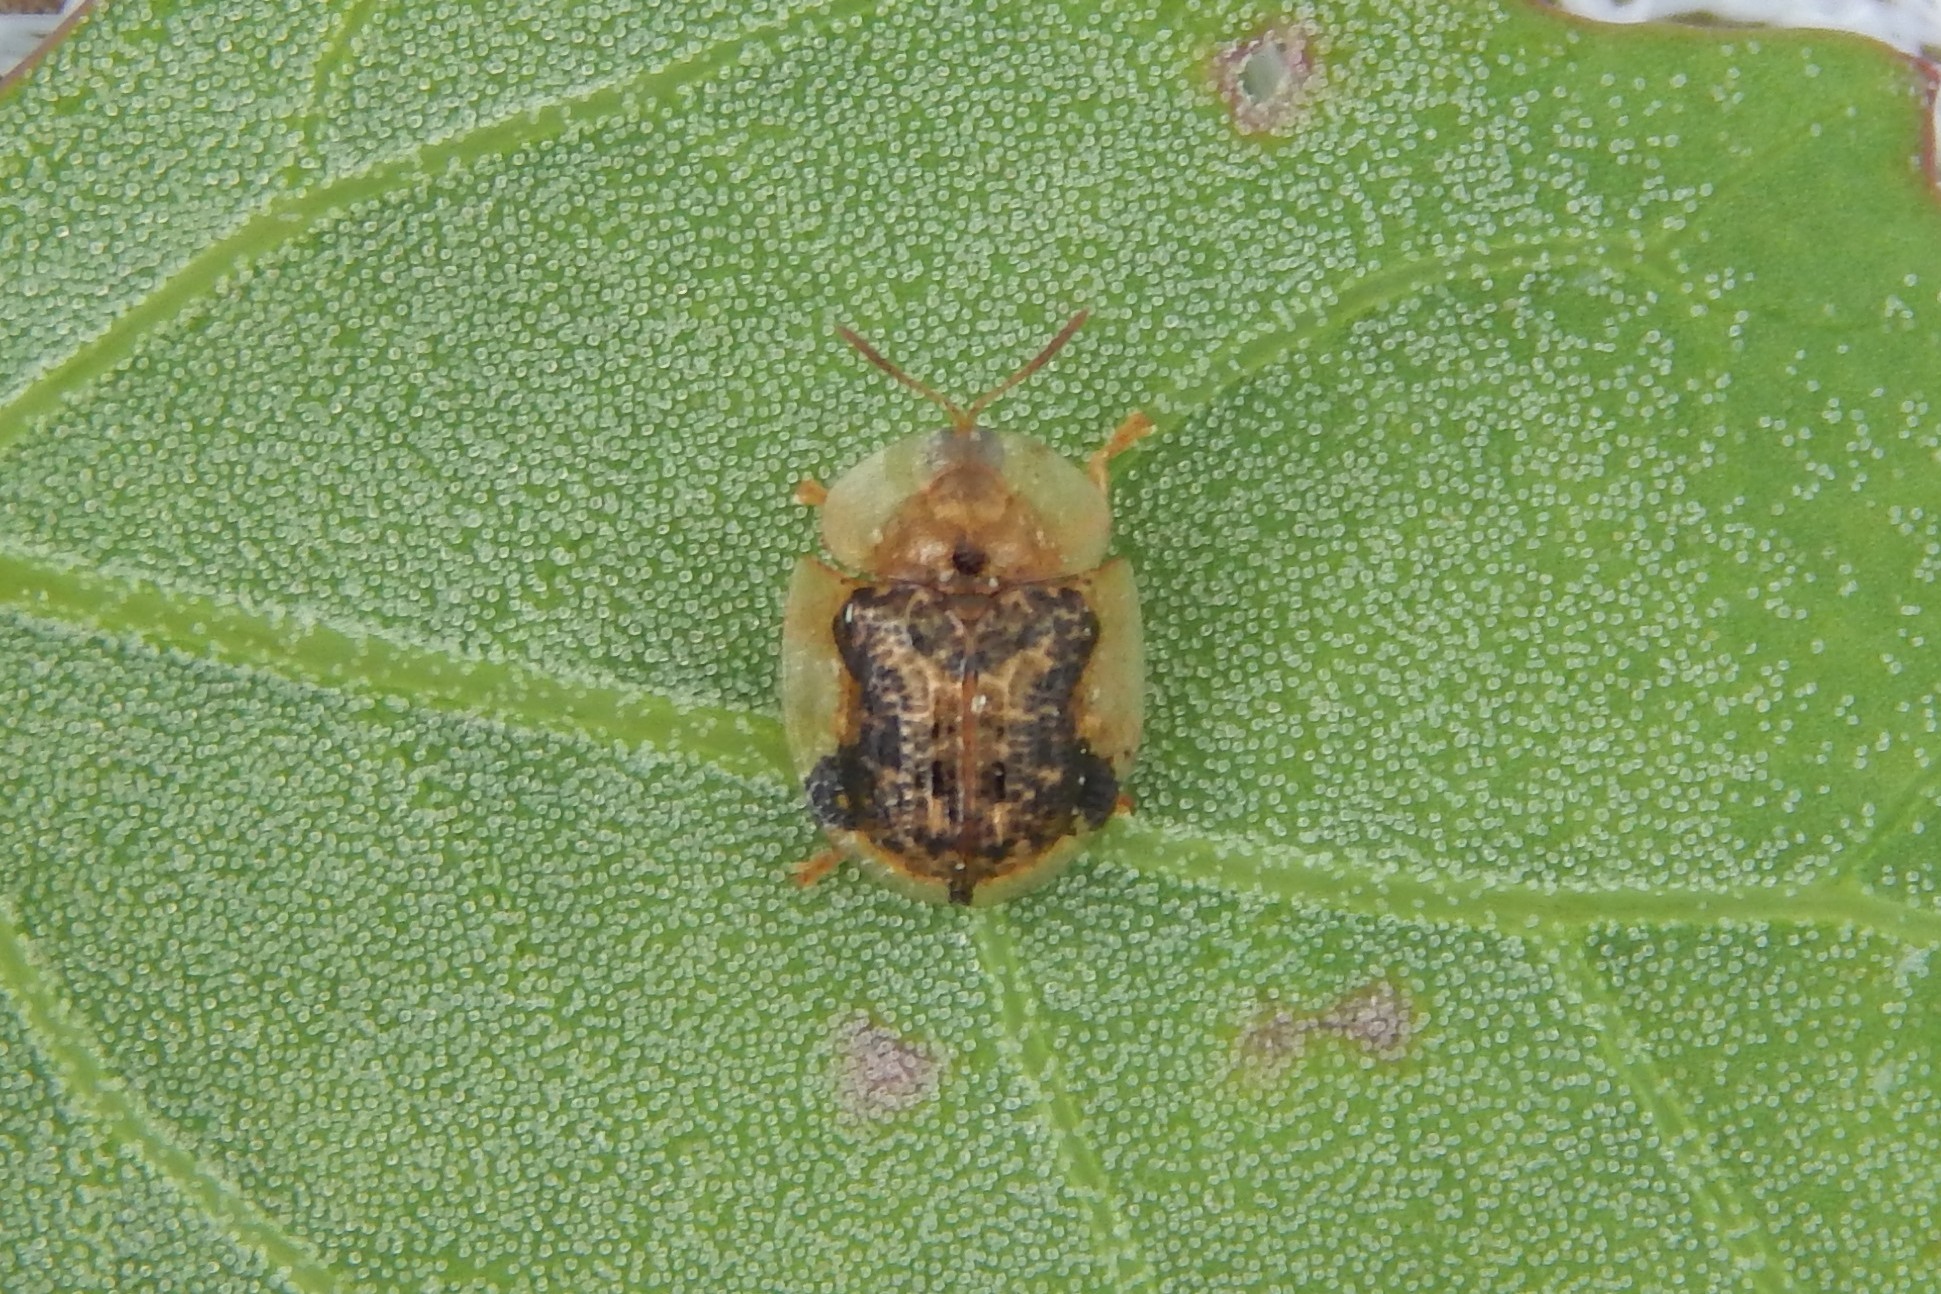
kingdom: Animalia
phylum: Arthropoda
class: Insecta
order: Coleoptera
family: Chrysomelidae
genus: Cassida
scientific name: Cassida piperata
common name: Small tortoise beetle
